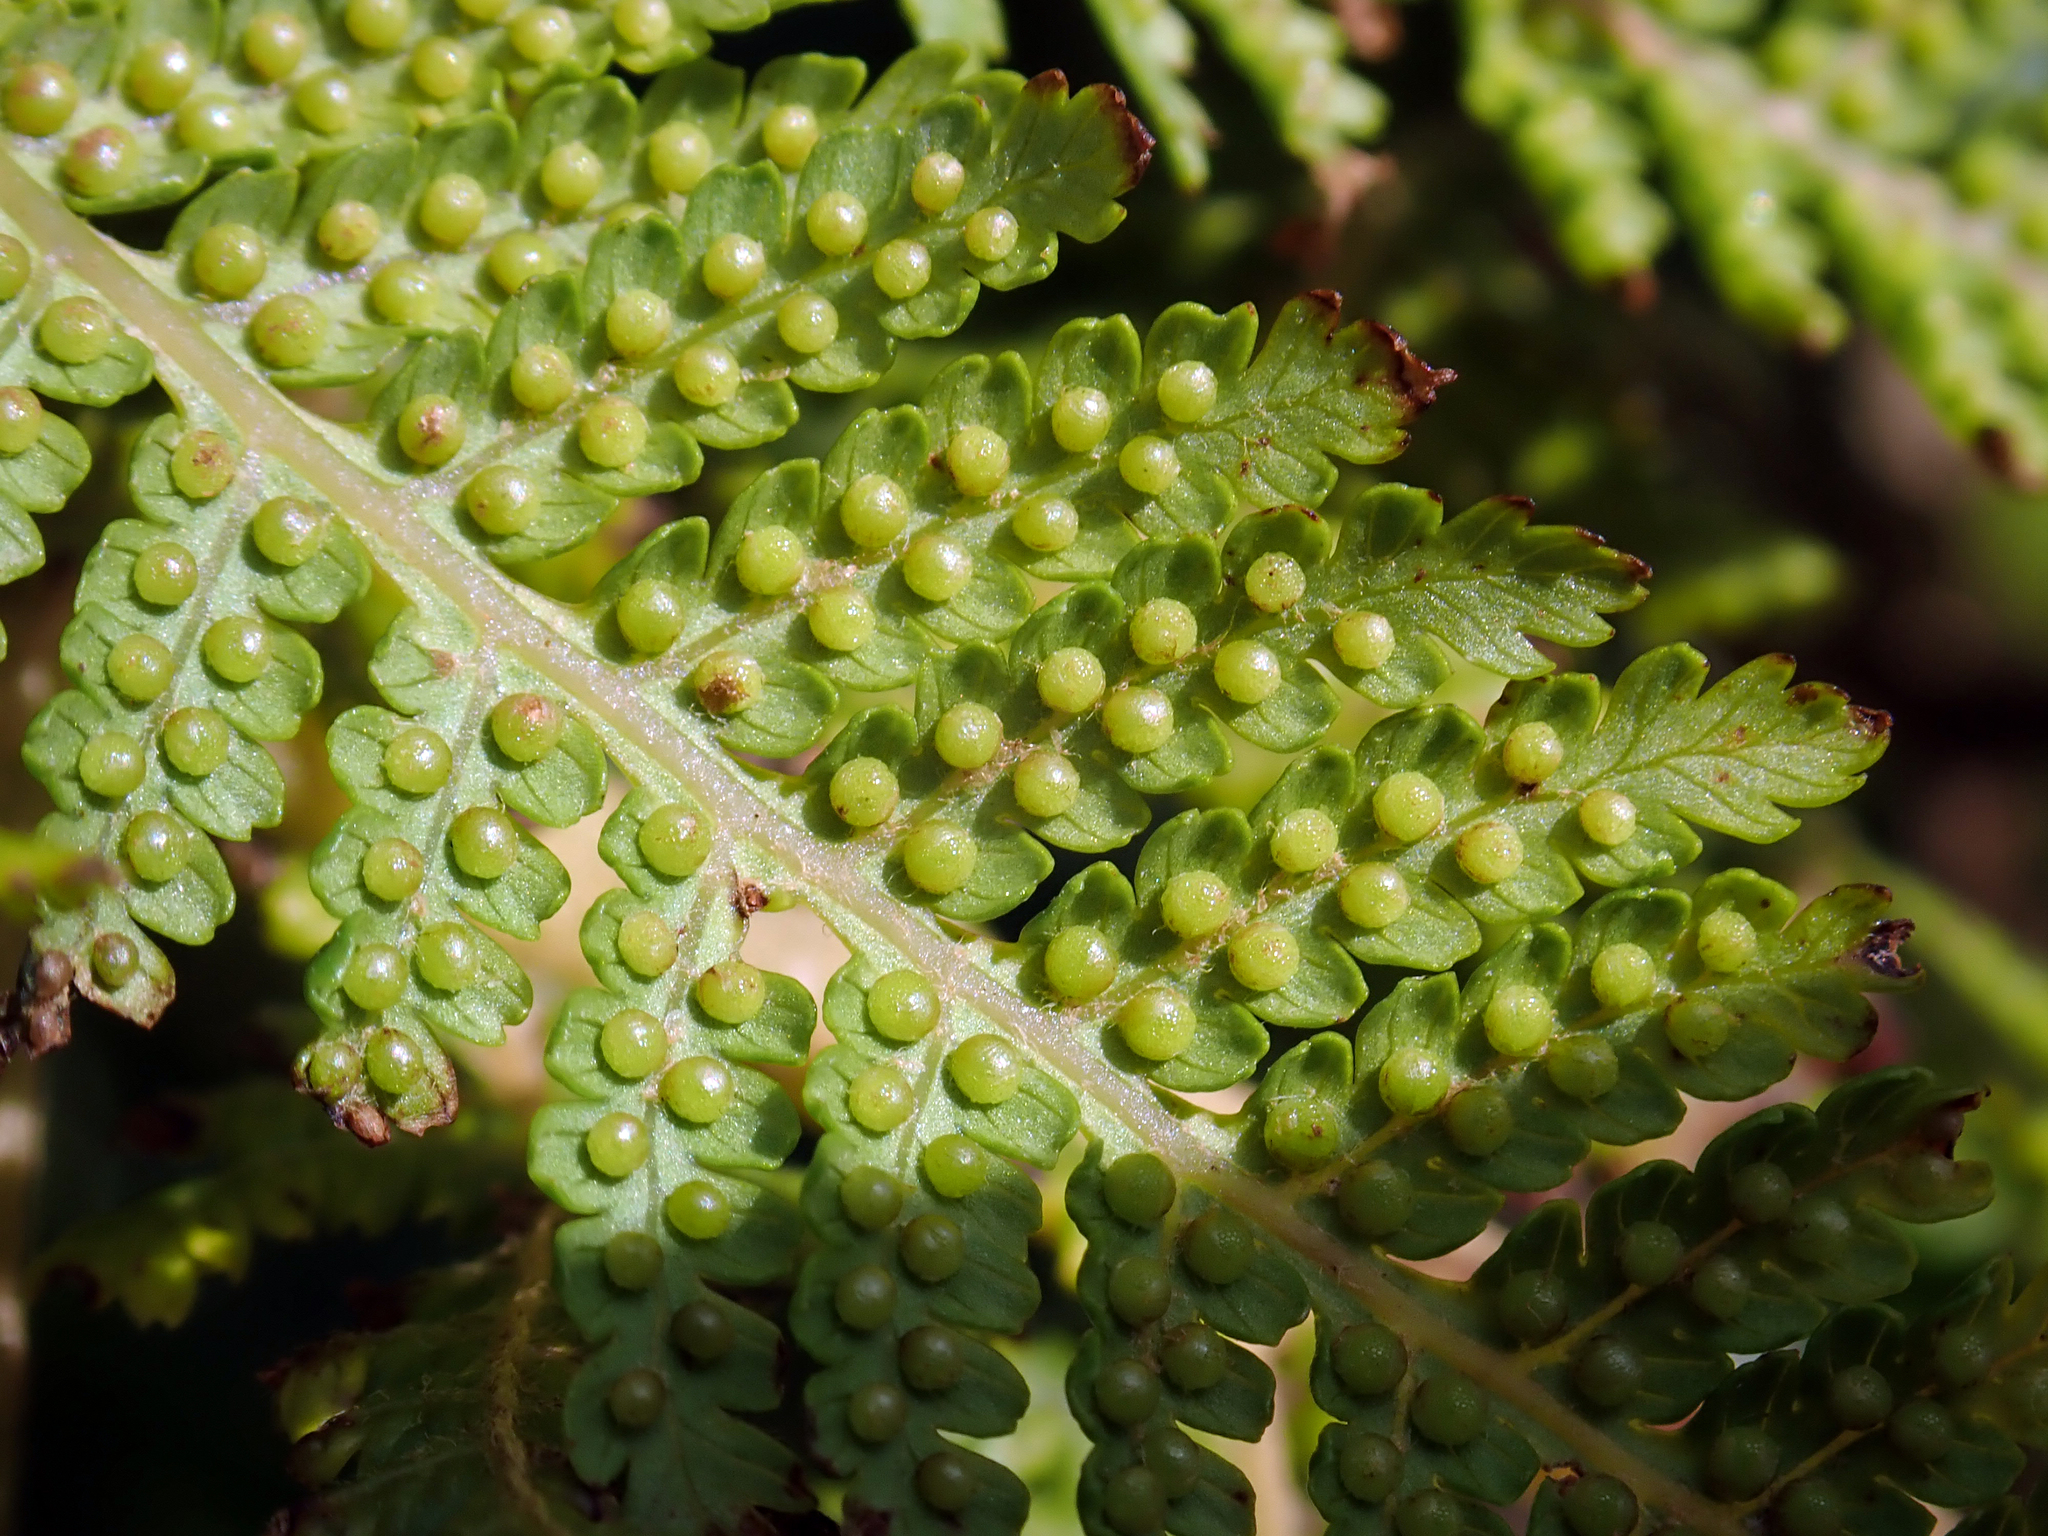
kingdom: Plantae
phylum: Tracheophyta
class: Polypodiopsida
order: Cyatheales
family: Cyatheaceae
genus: Cyathea
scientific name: Cyathea cunninghamii
